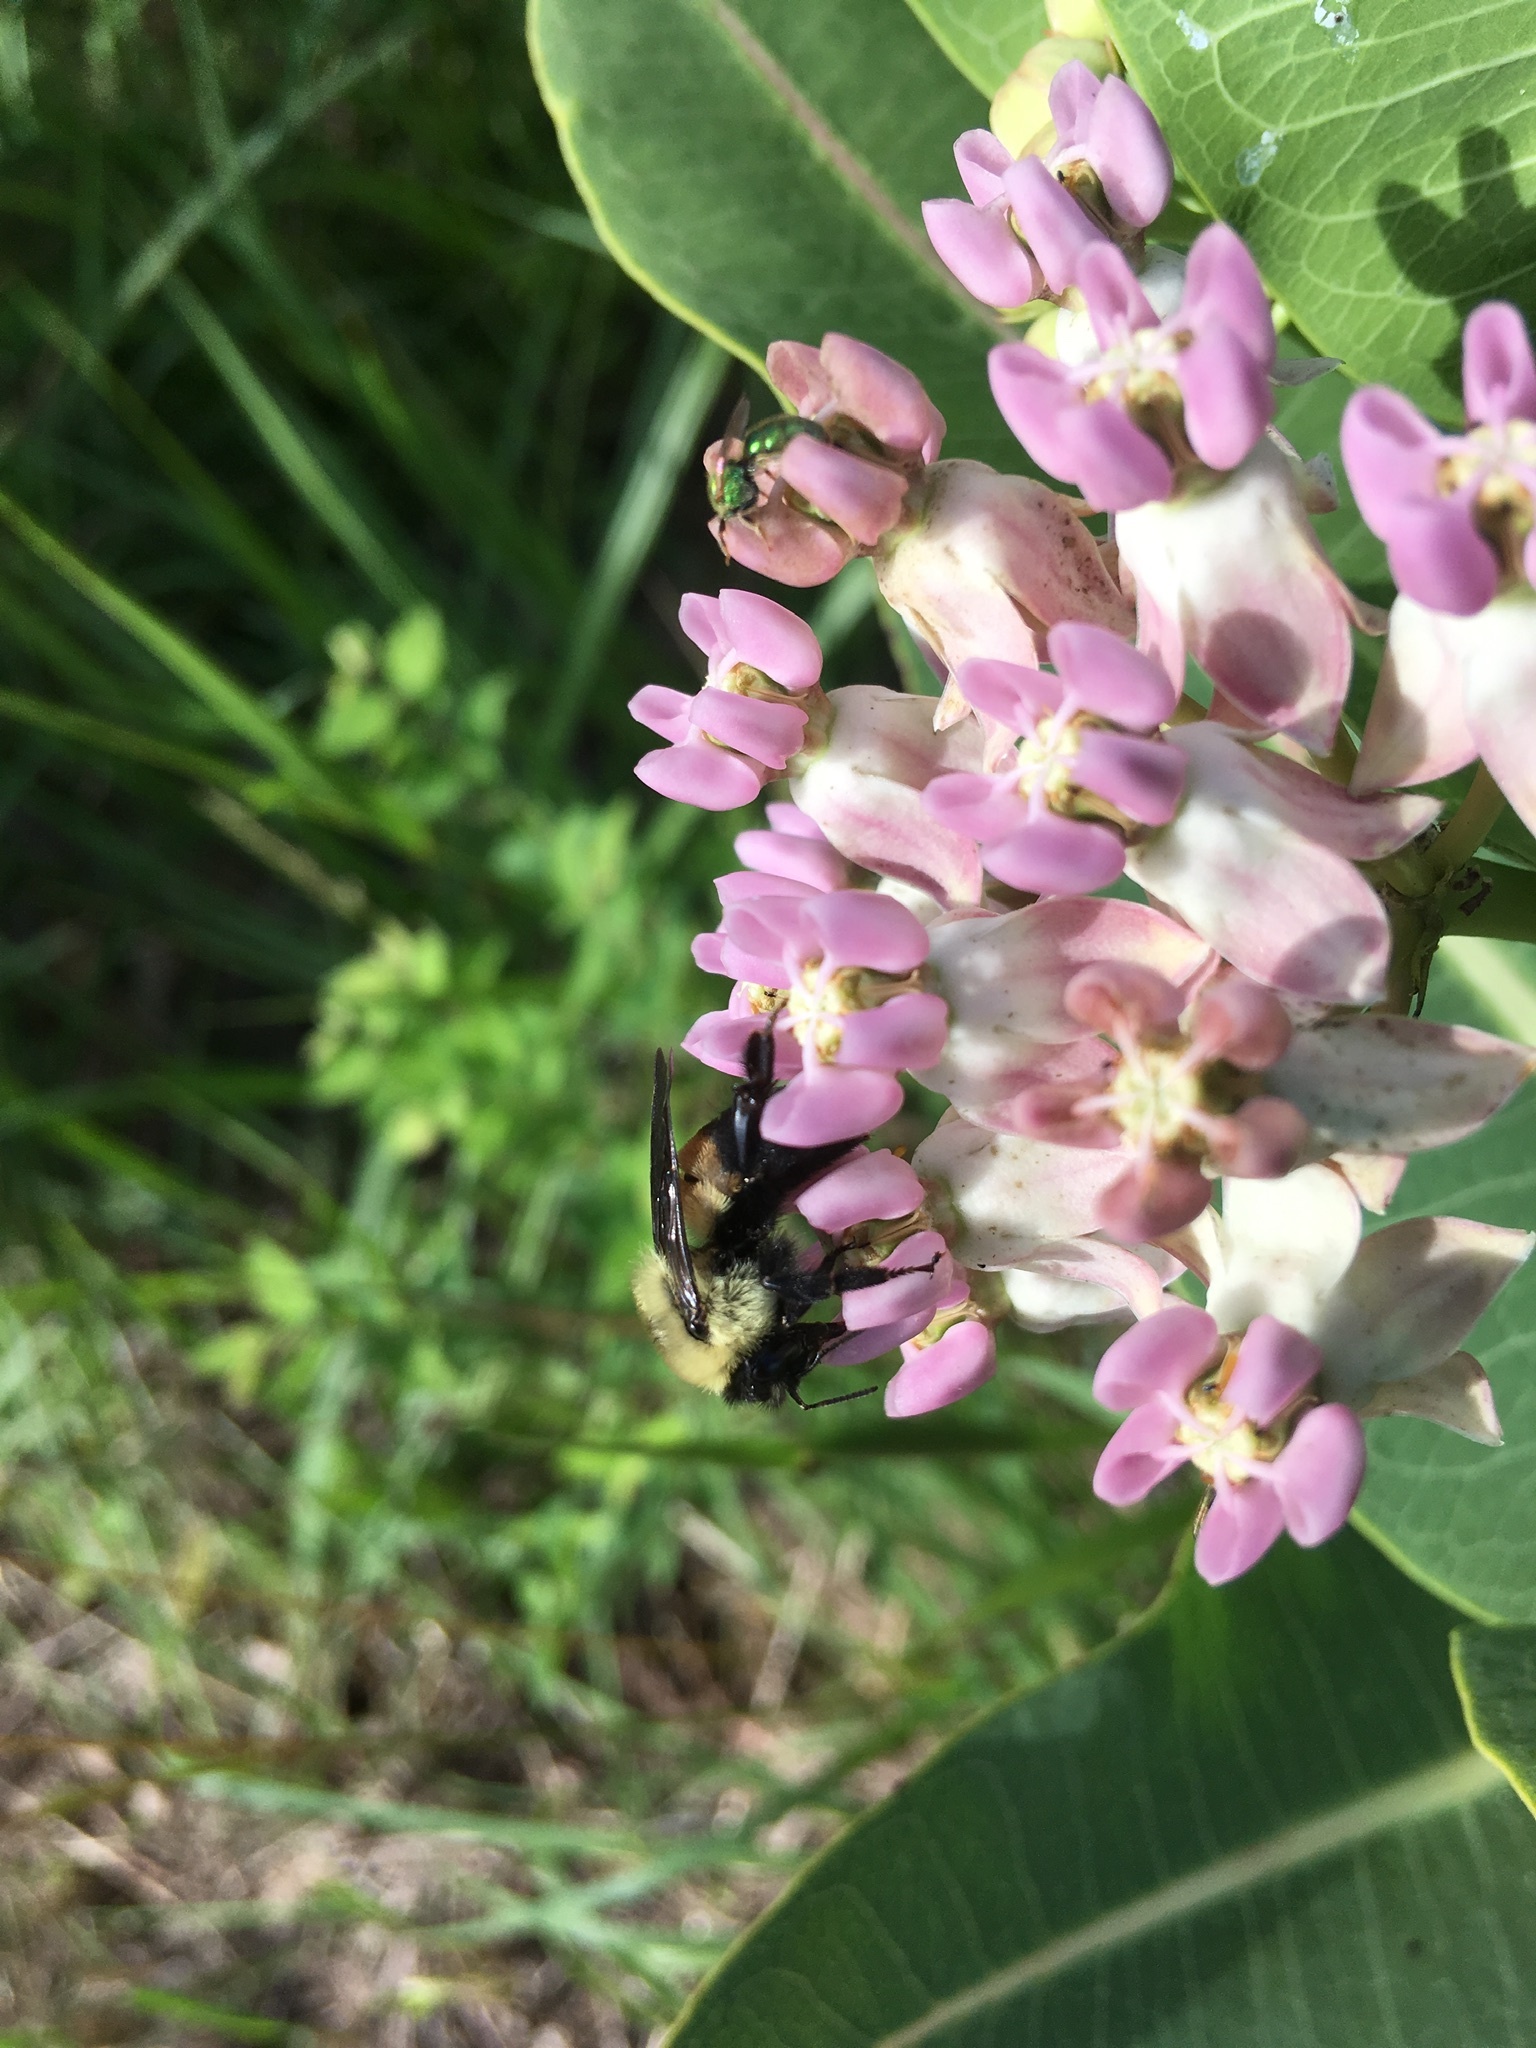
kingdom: Animalia
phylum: Arthropoda
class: Insecta
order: Hymenoptera
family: Apidae
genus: Bombus
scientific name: Bombus griseocollis
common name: Brown-belted bumble bee
